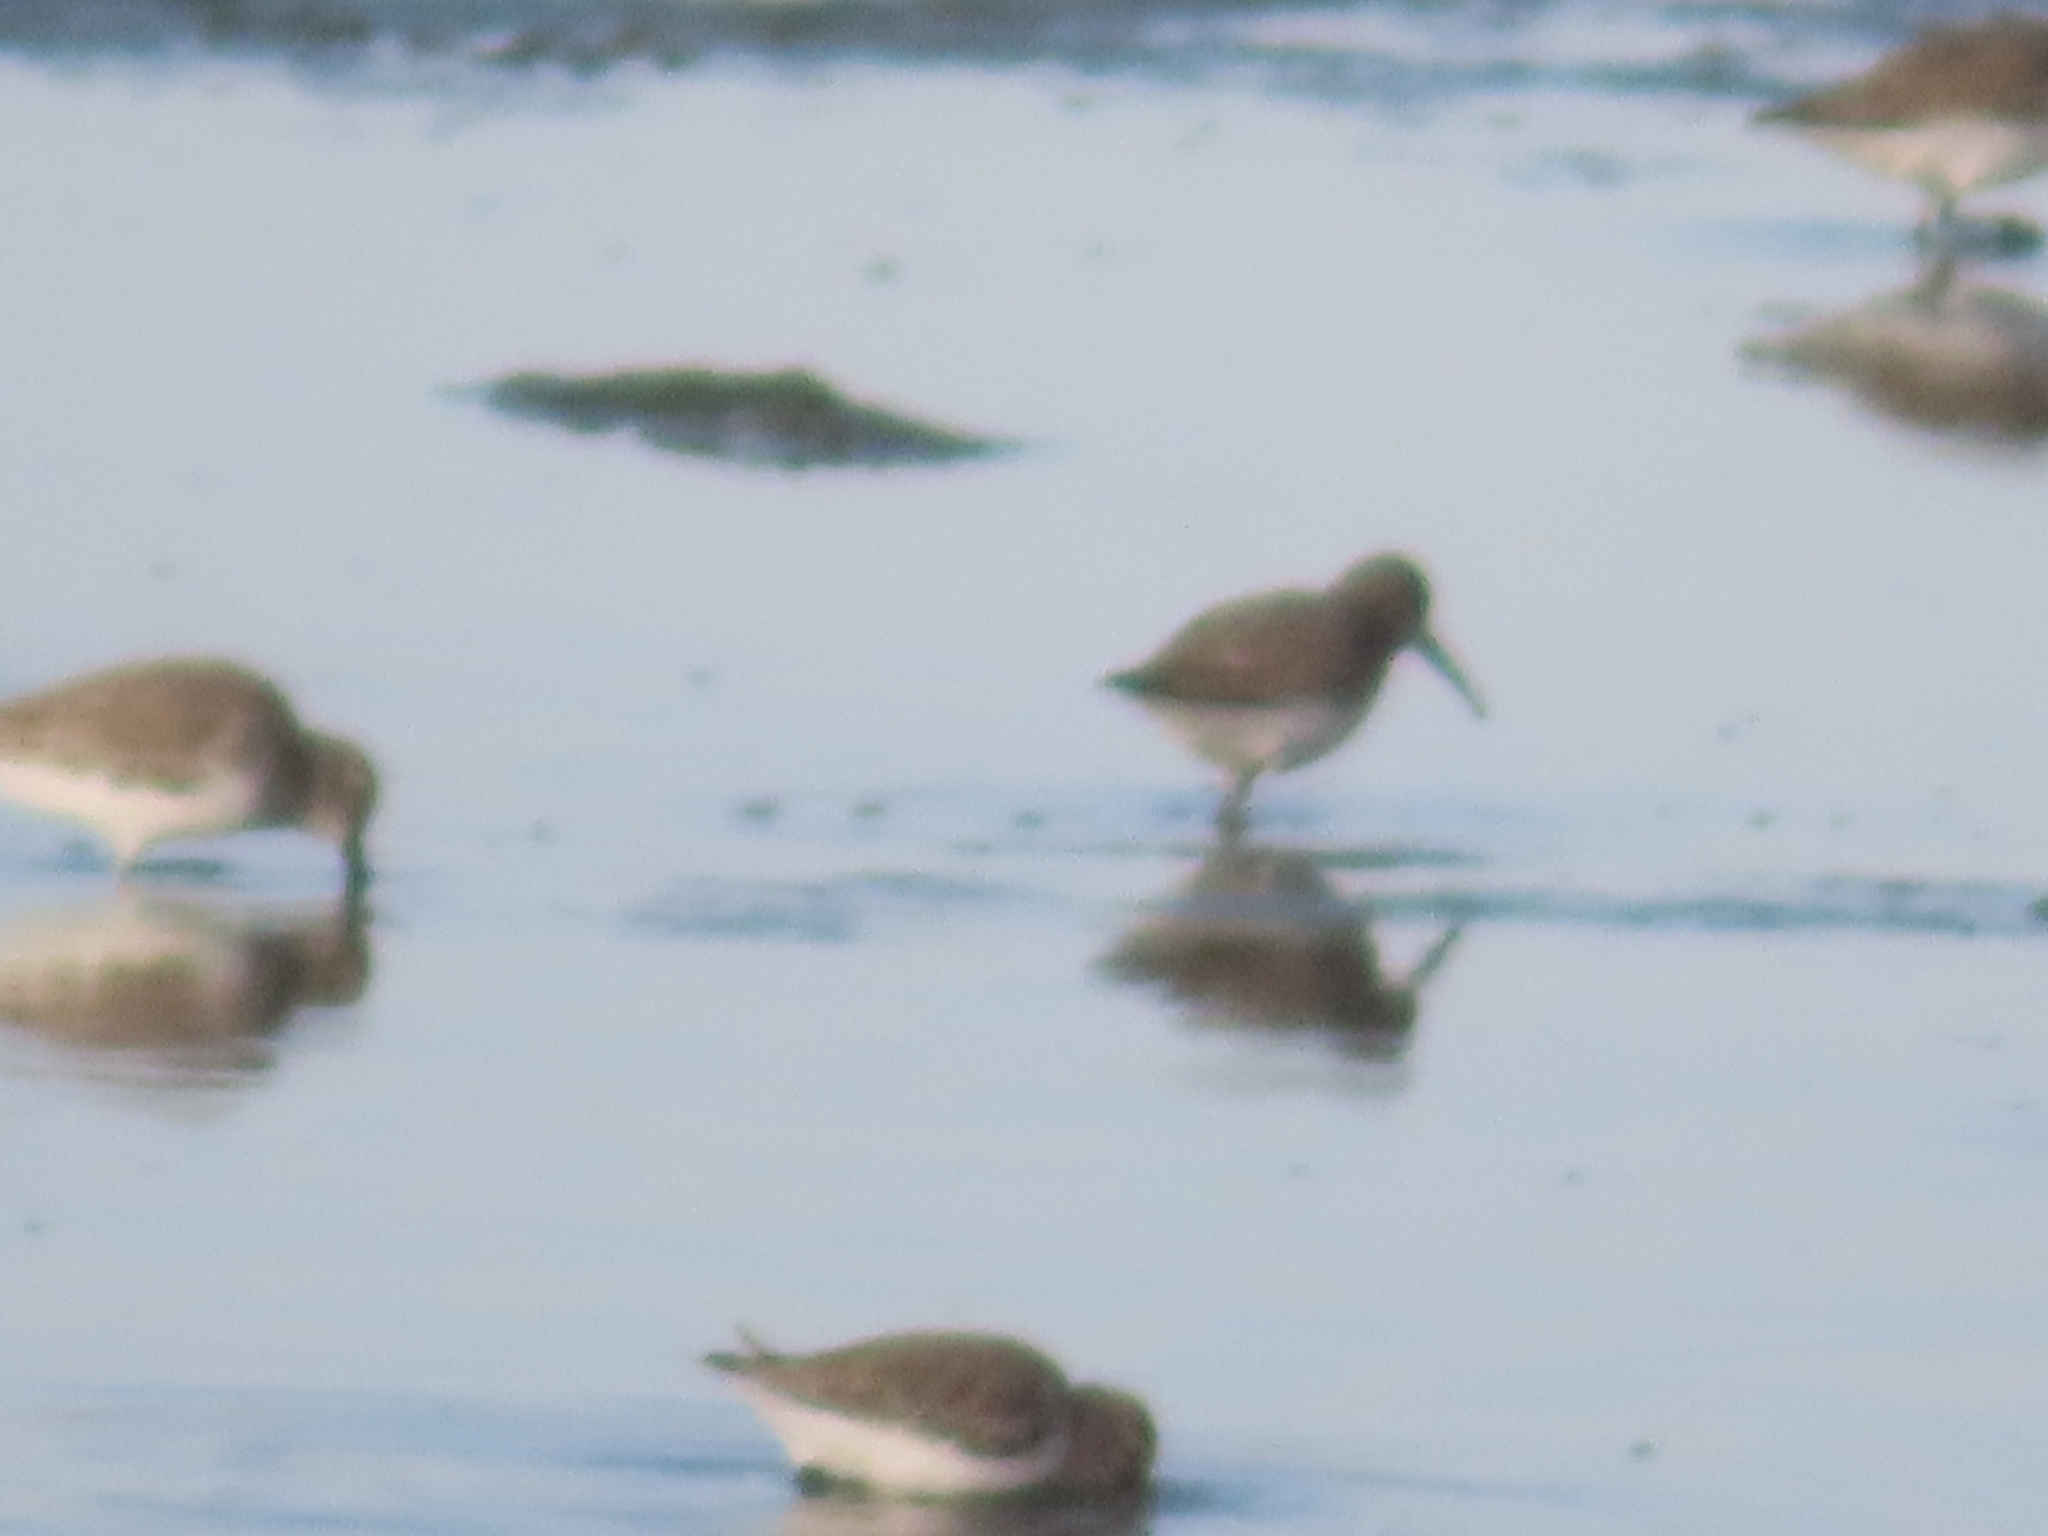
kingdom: Animalia
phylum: Chordata
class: Aves
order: Charadriiformes
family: Scolopacidae
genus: Calidris
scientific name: Calidris alpina
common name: Dunlin
